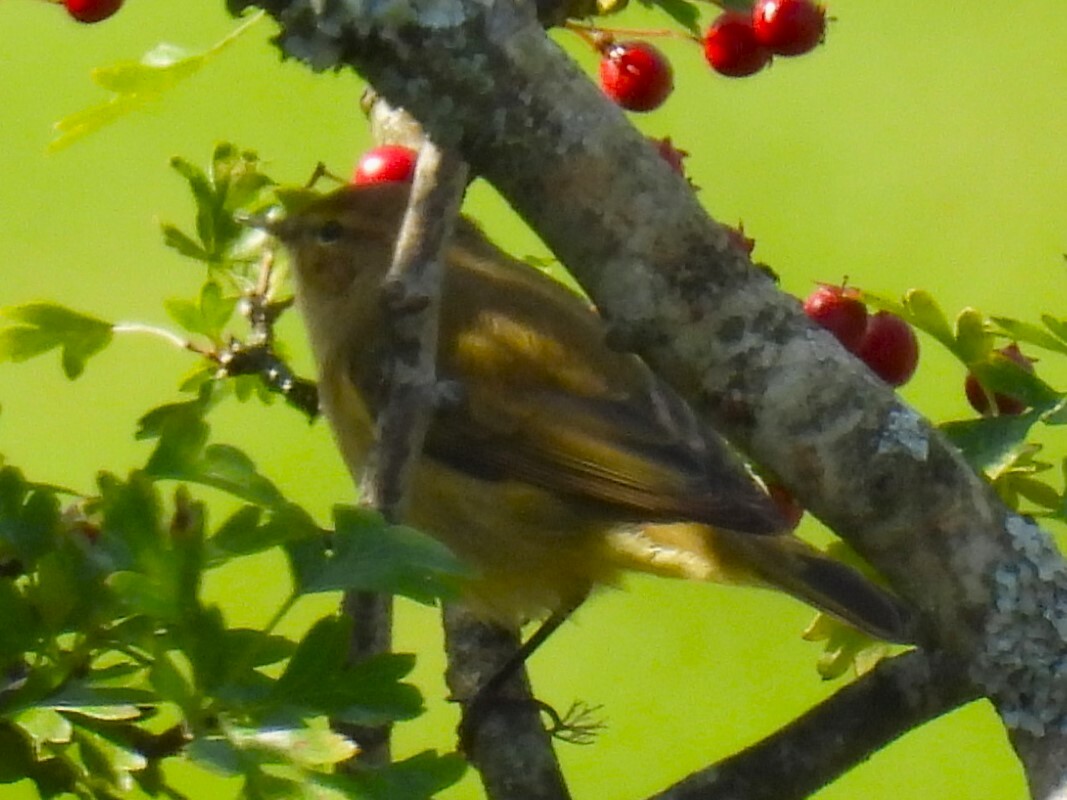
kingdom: Animalia
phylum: Chordata
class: Aves
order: Passeriformes
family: Phylloscopidae
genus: Phylloscopus
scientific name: Phylloscopus collybita
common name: Common chiffchaff
